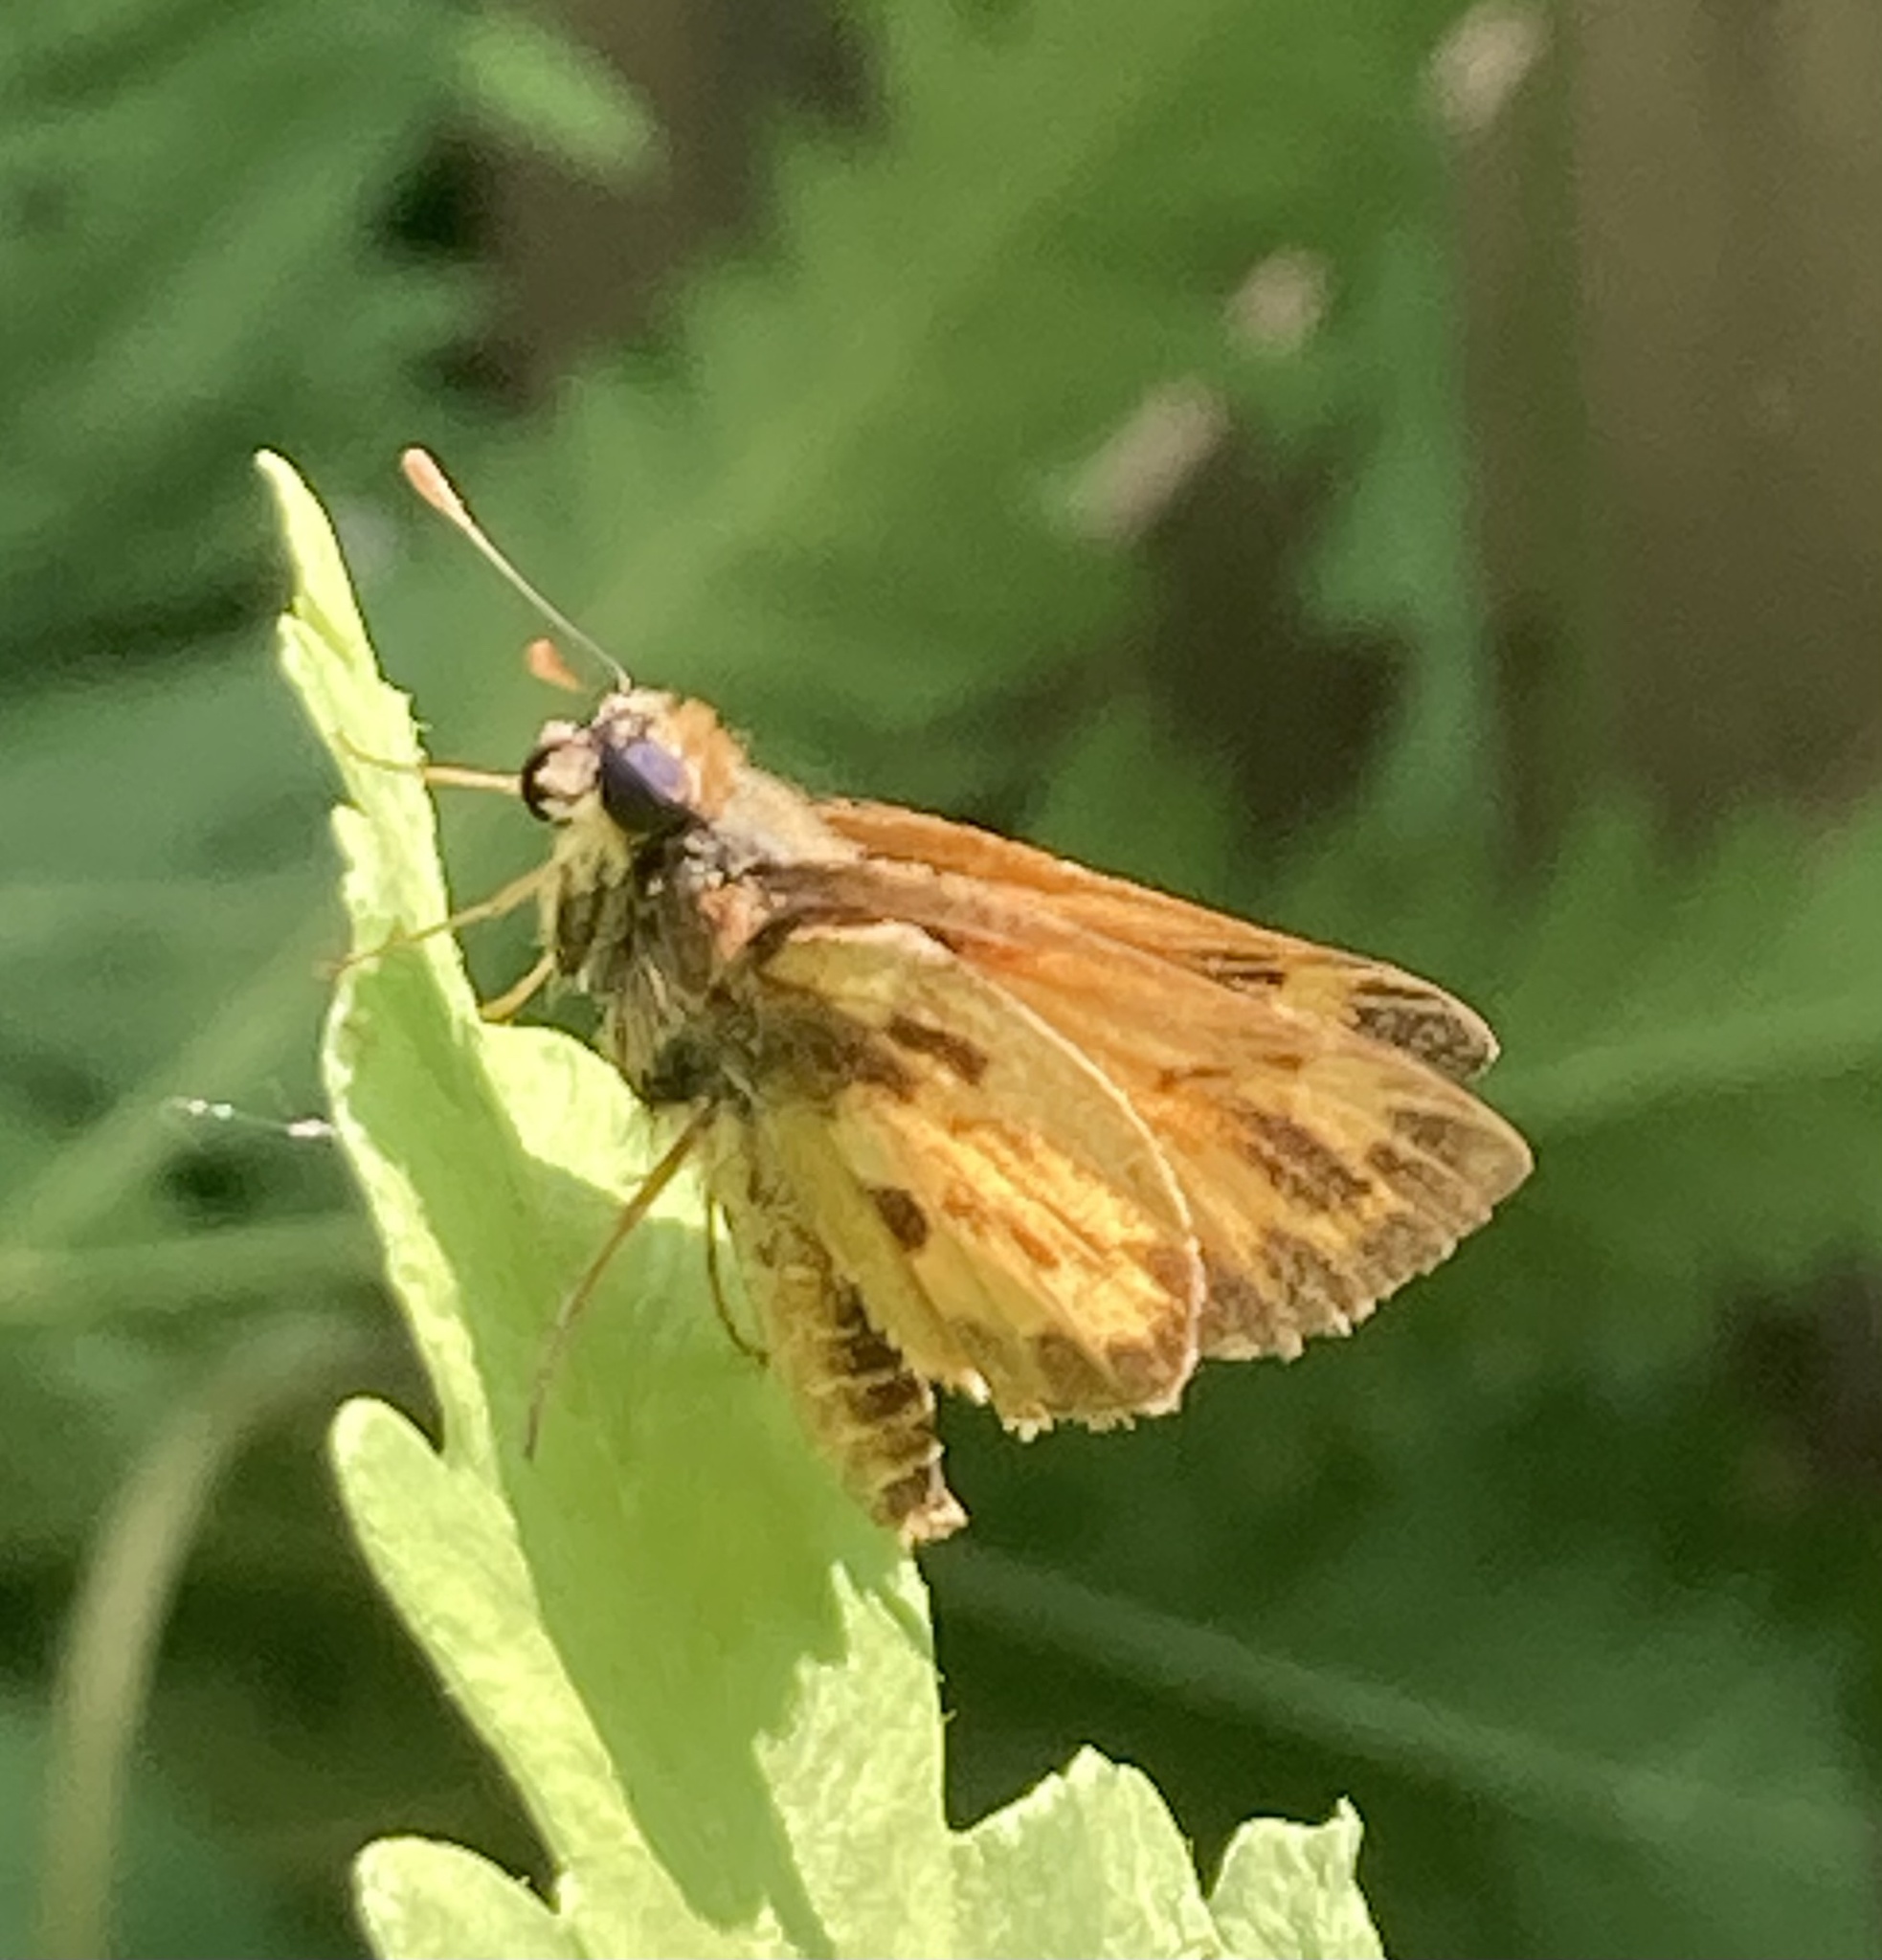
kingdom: Animalia
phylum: Arthropoda
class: Insecta
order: Lepidoptera
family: Hesperiidae
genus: Lon
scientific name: Lon zabulon
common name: Zabulon skipper
